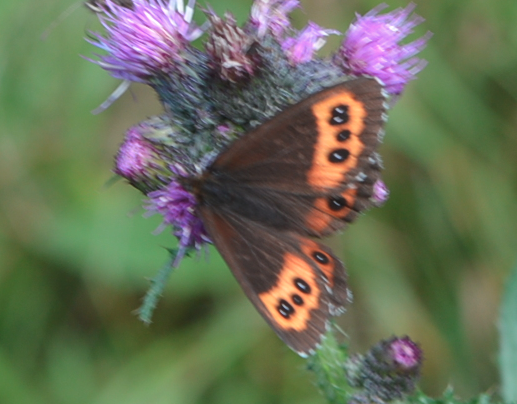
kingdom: Animalia
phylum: Arthropoda
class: Insecta
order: Lepidoptera
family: Nymphalidae
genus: Erebia
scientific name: Erebia ligea
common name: Arran brown
